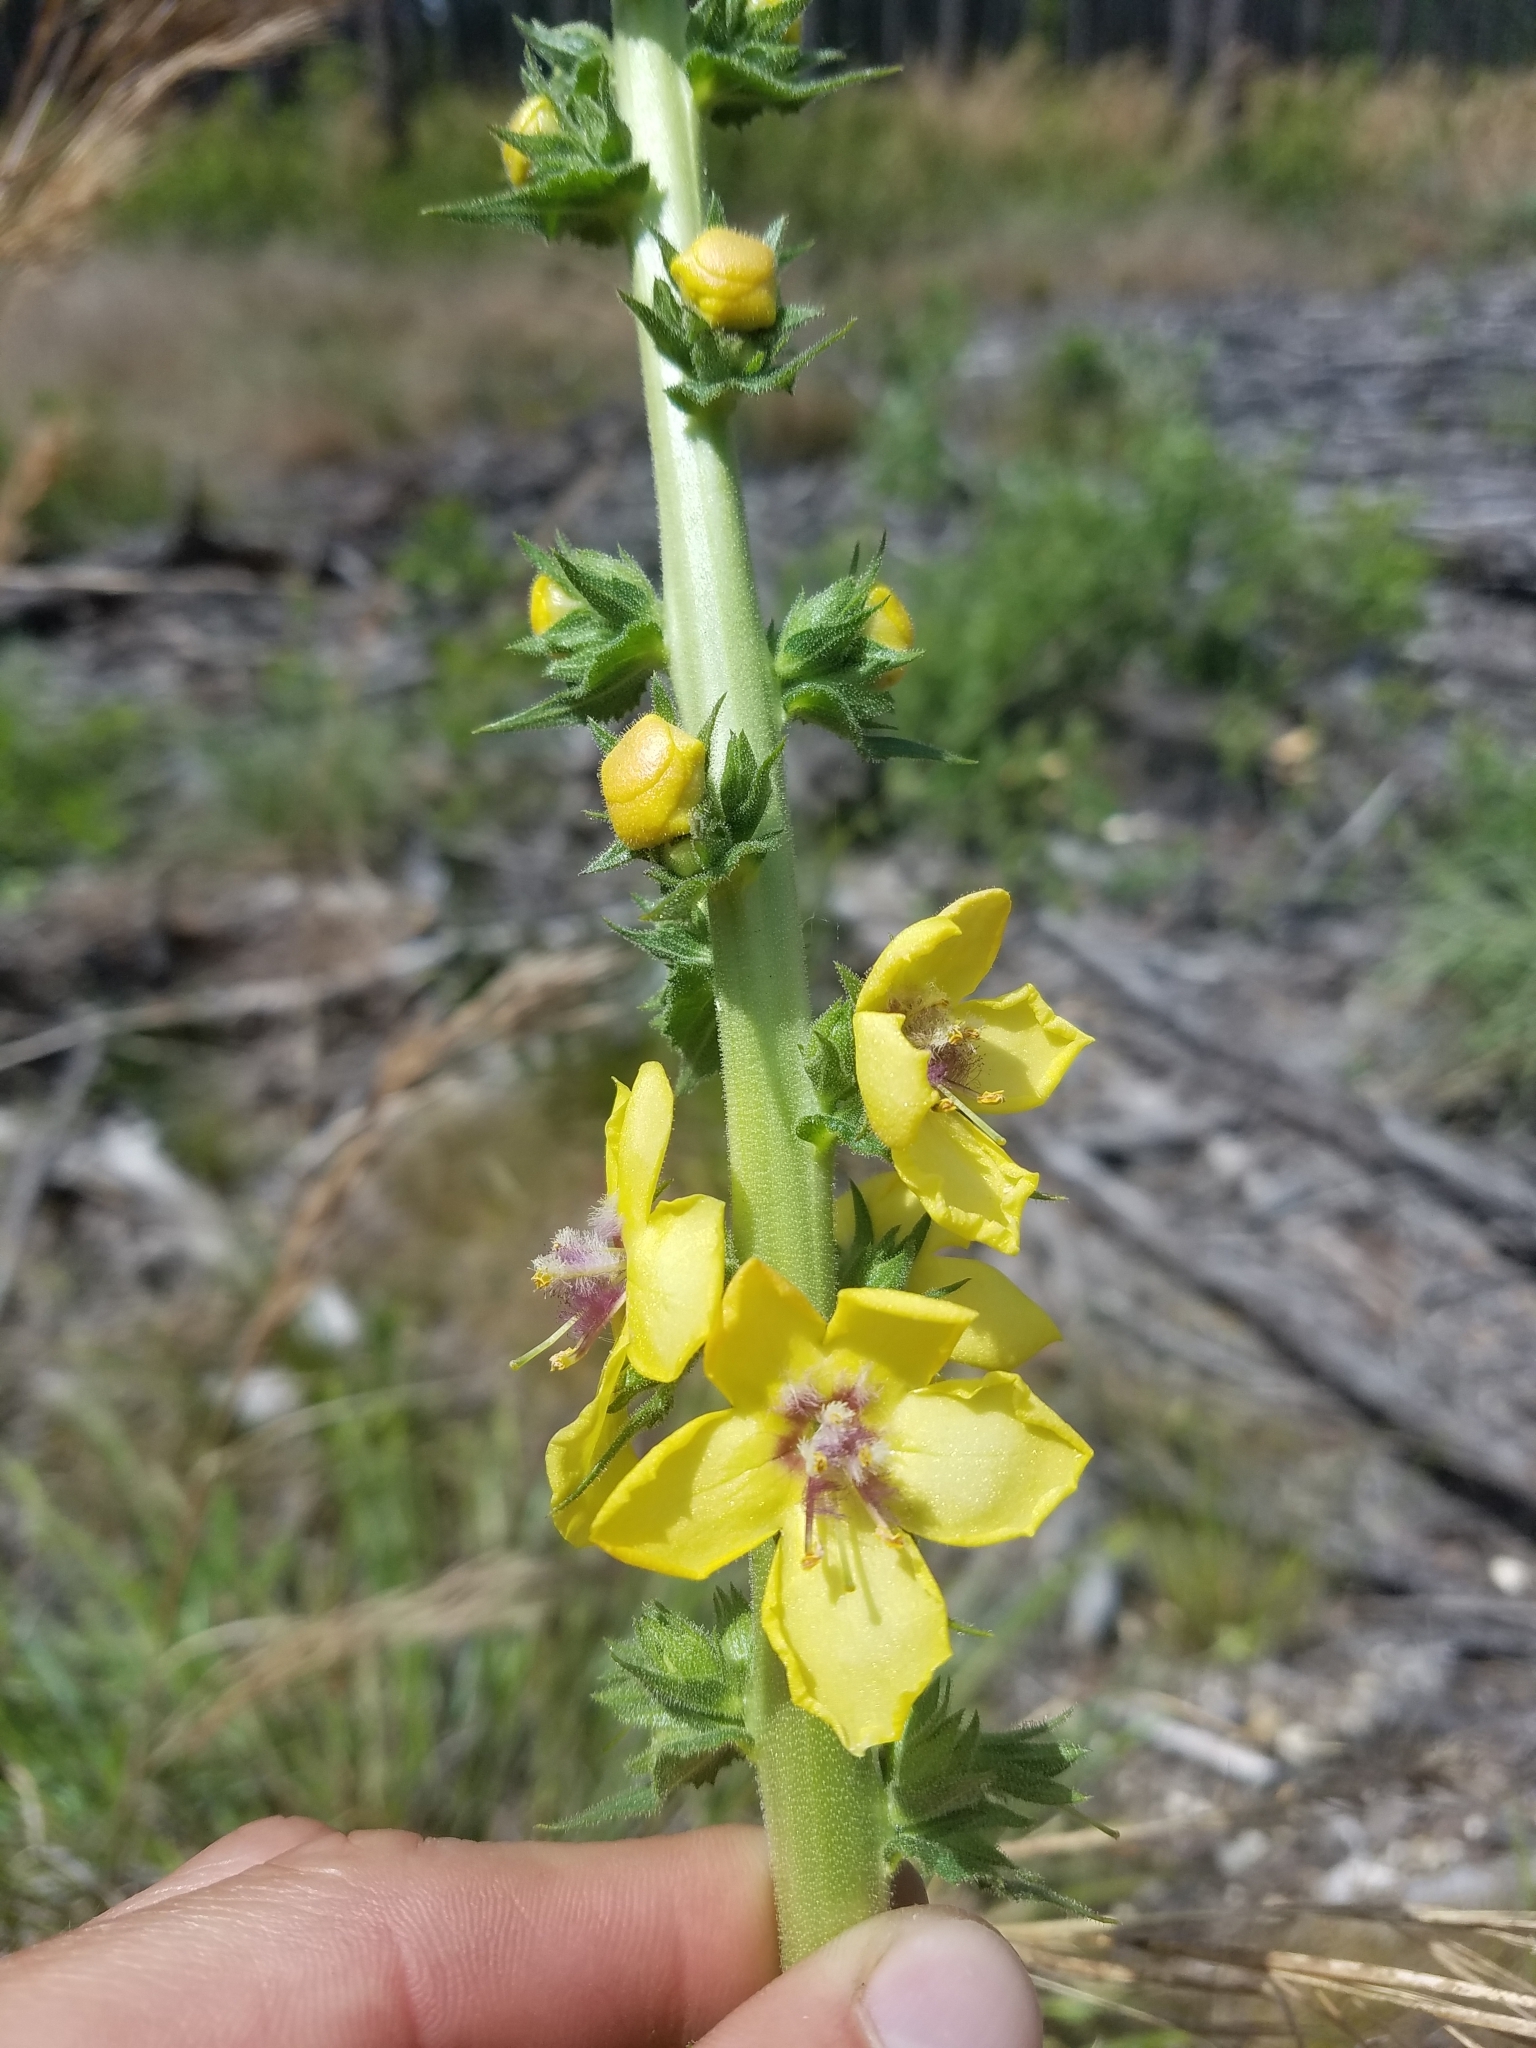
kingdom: Plantae
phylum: Tracheophyta
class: Magnoliopsida
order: Lamiales
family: Scrophulariaceae
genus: Verbascum
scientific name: Verbascum virgatum
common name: Twiggy mullein
